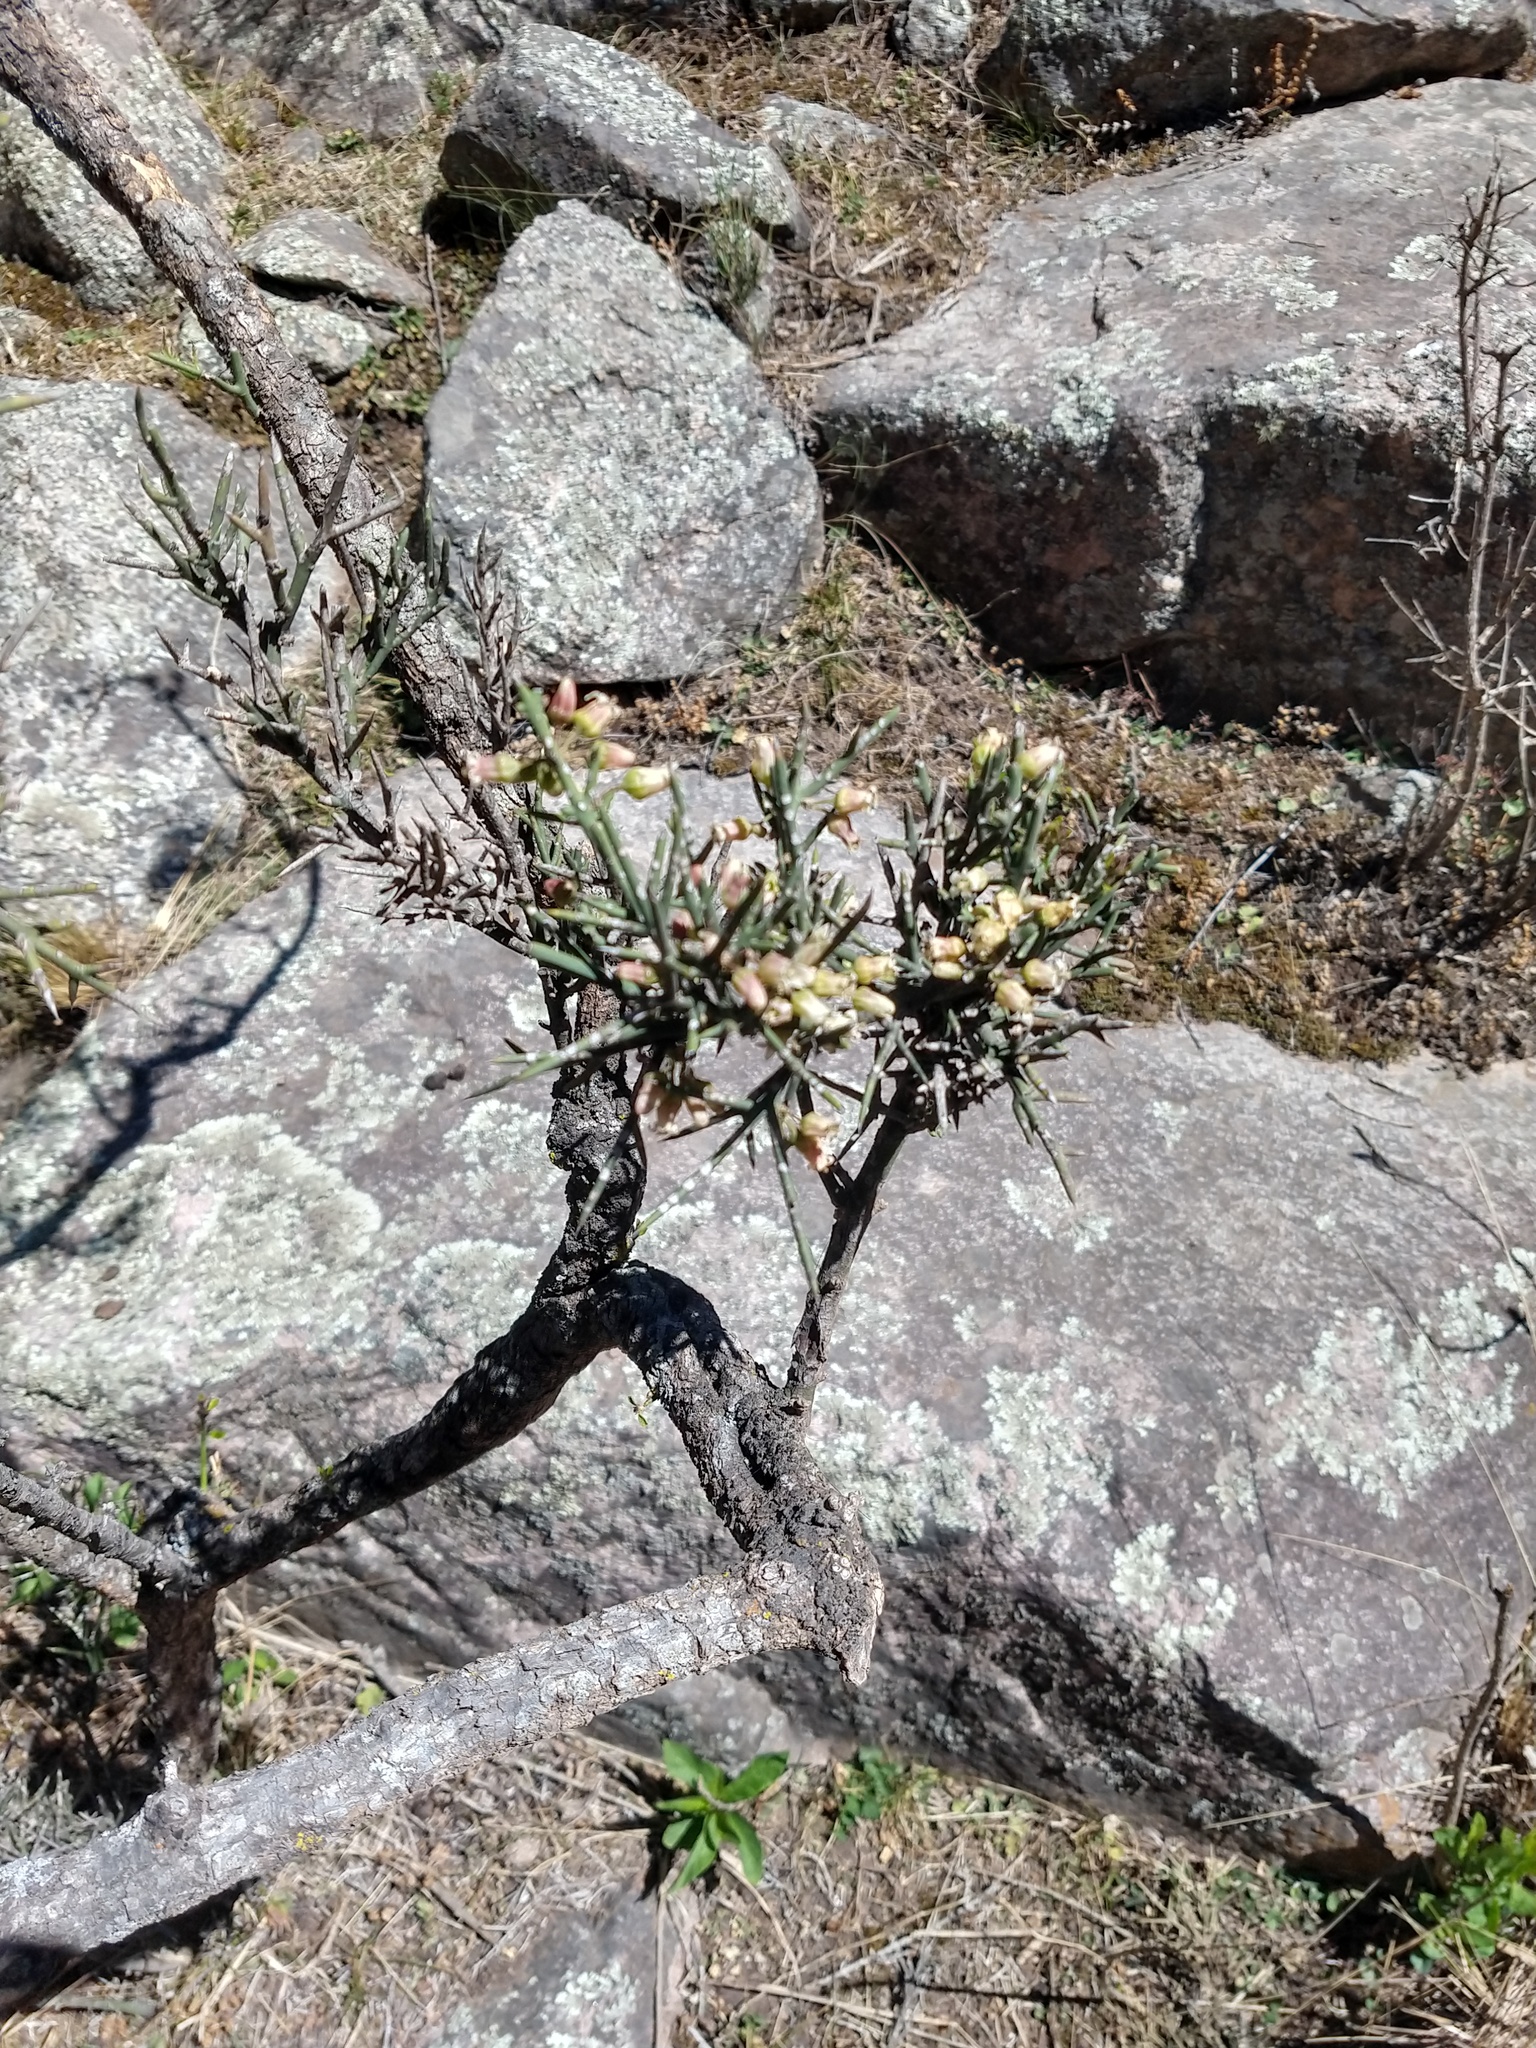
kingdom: Plantae
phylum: Tracheophyta
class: Magnoliopsida
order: Rosales
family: Rhamnaceae
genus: Colletia
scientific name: Colletia spinosissima
